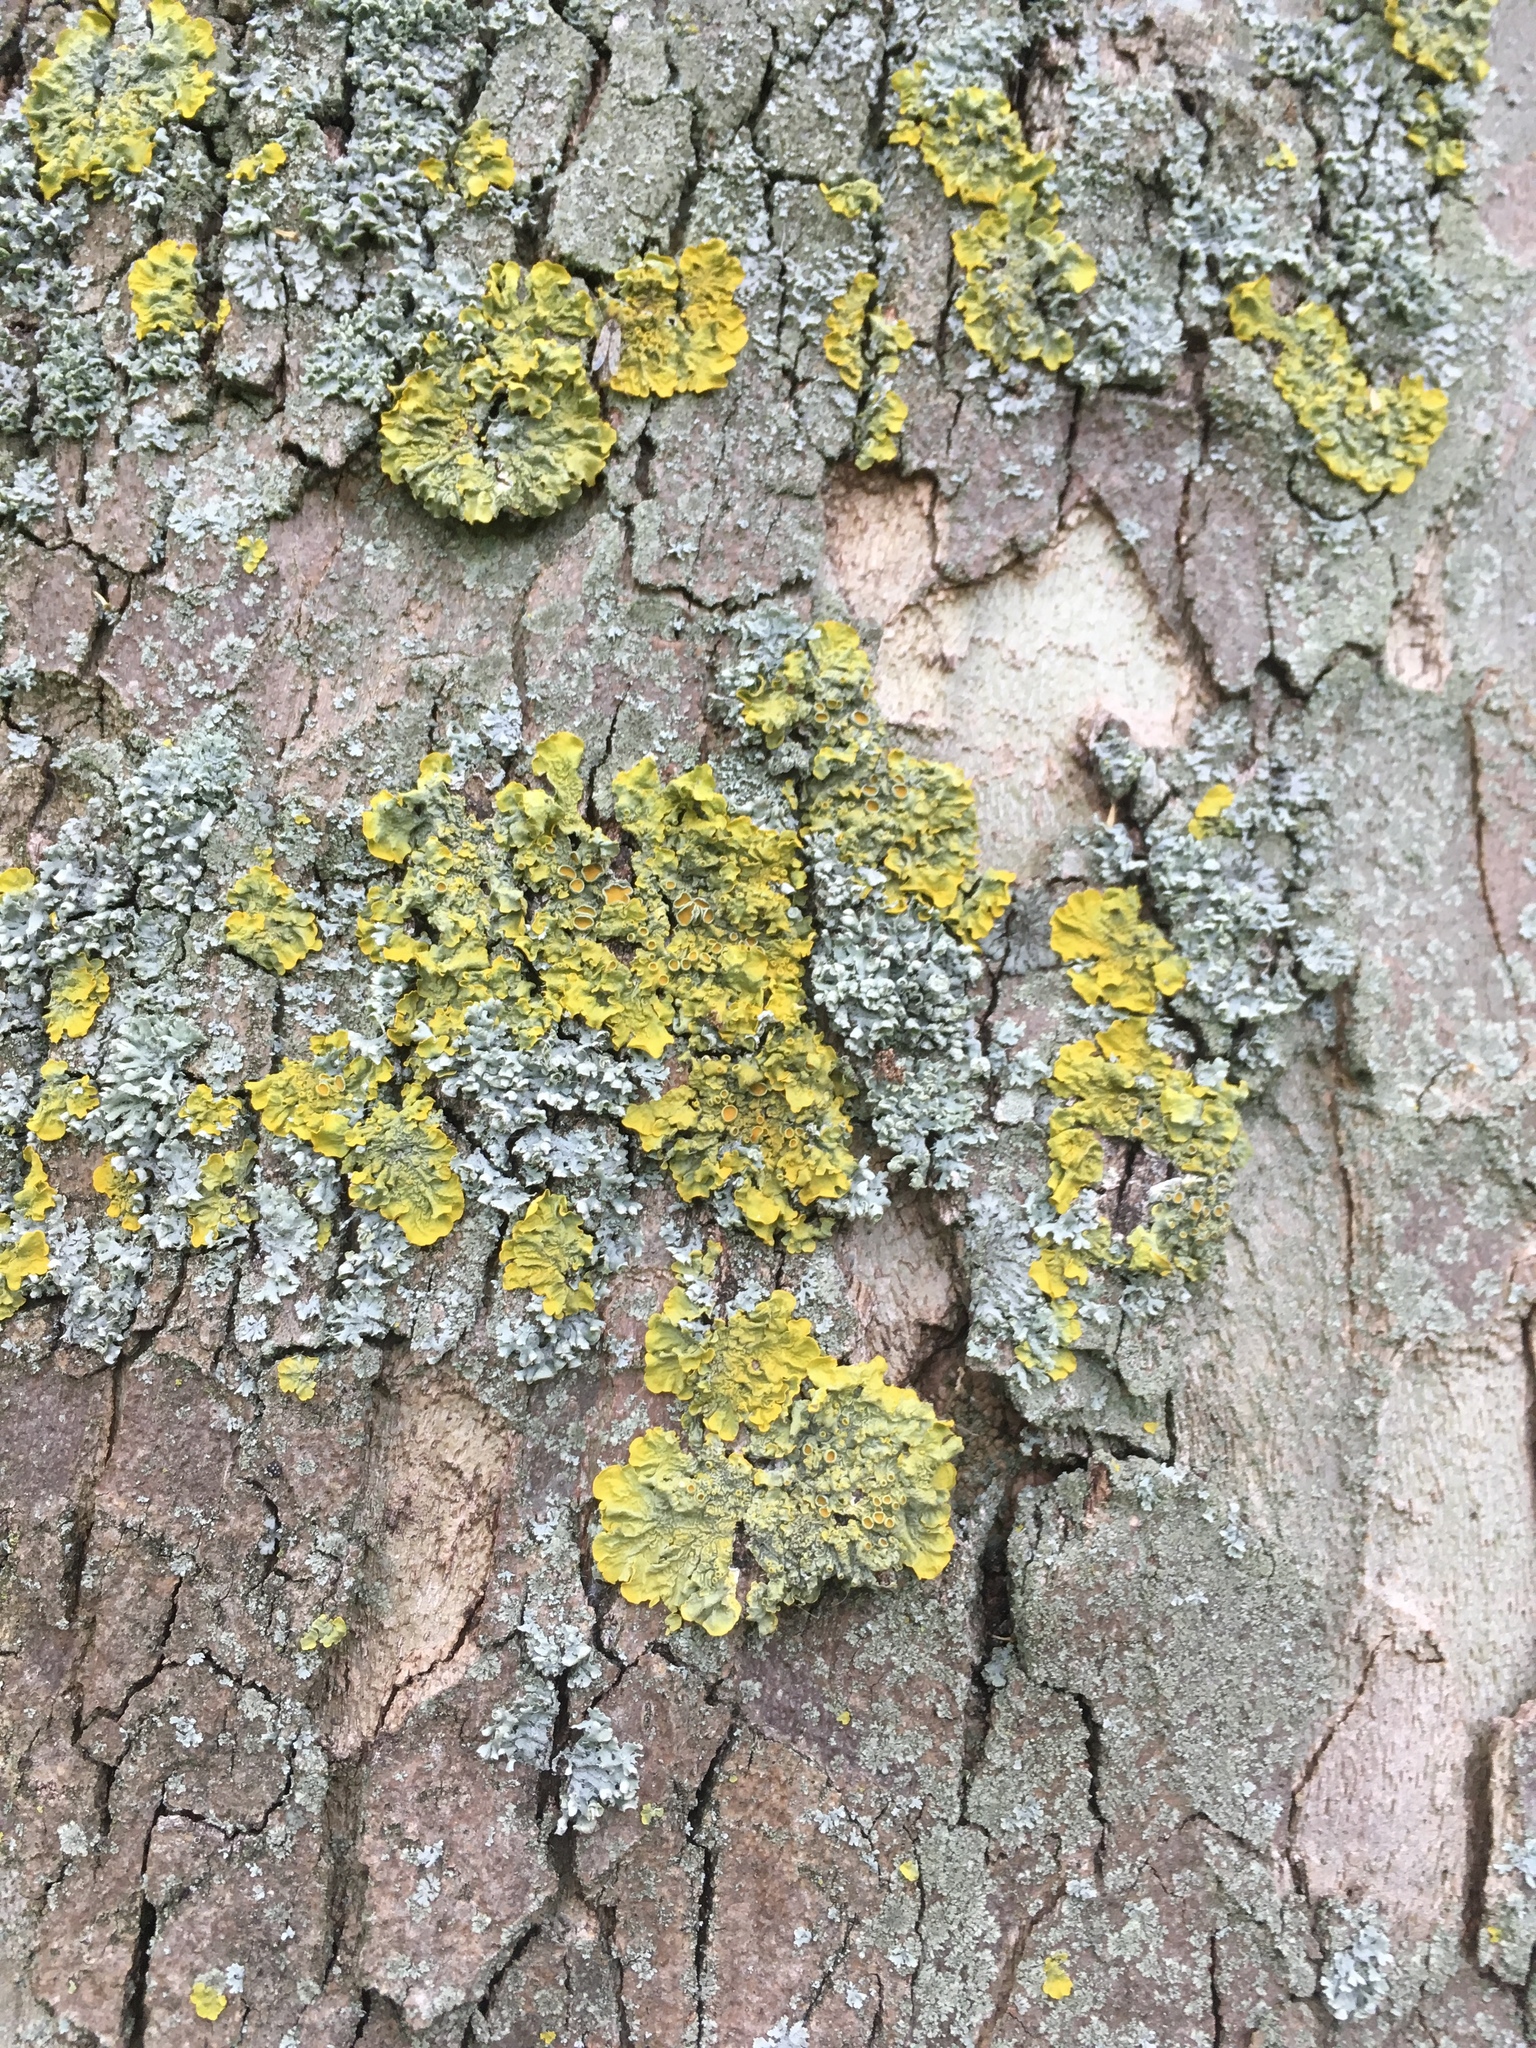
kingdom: Fungi
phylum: Ascomycota
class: Lecanoromycetes
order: Teloschistales
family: Teloschistaceae
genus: Xanthoria
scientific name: Xanthoria parietina
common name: Common orange lichen
